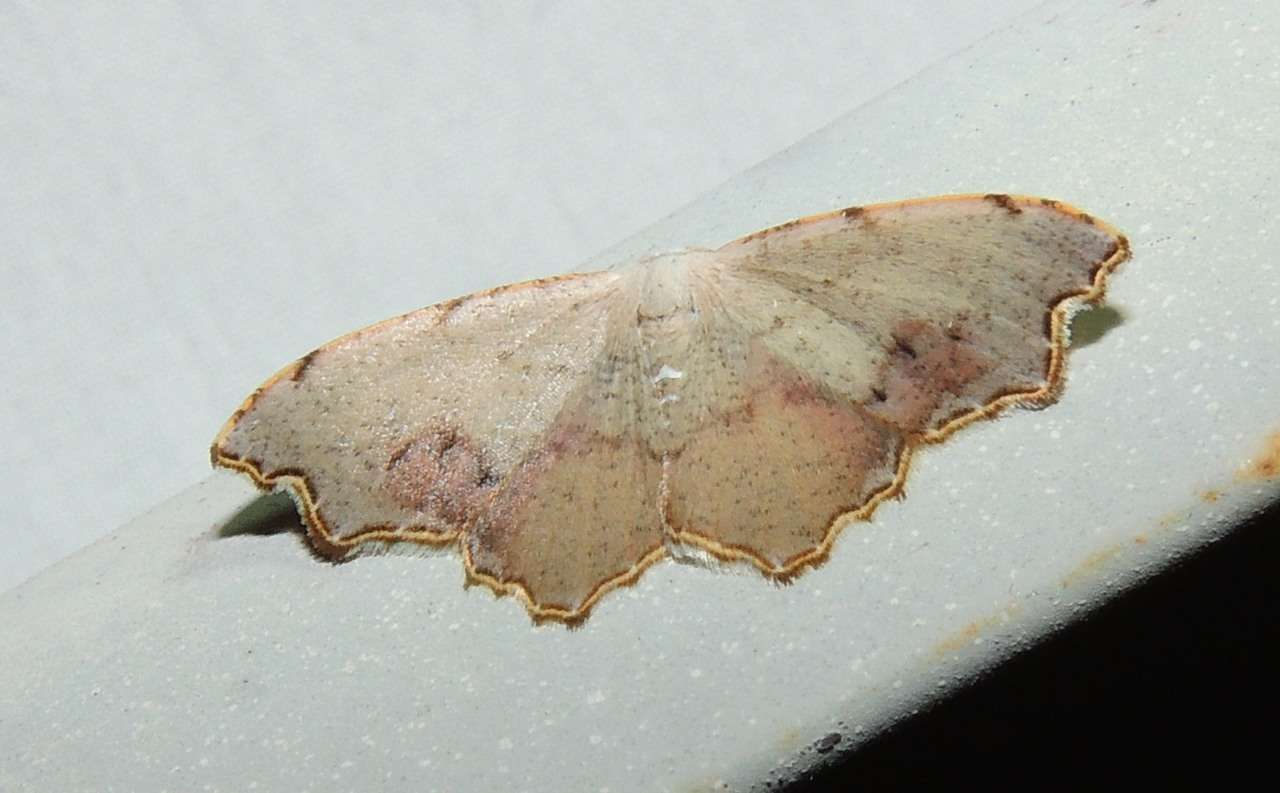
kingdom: Animalia
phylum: Arthropoda
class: Insecta
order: Lepidoptera
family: Geometridae
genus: Epicompsa
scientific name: Epicompsa xanthocrossa
